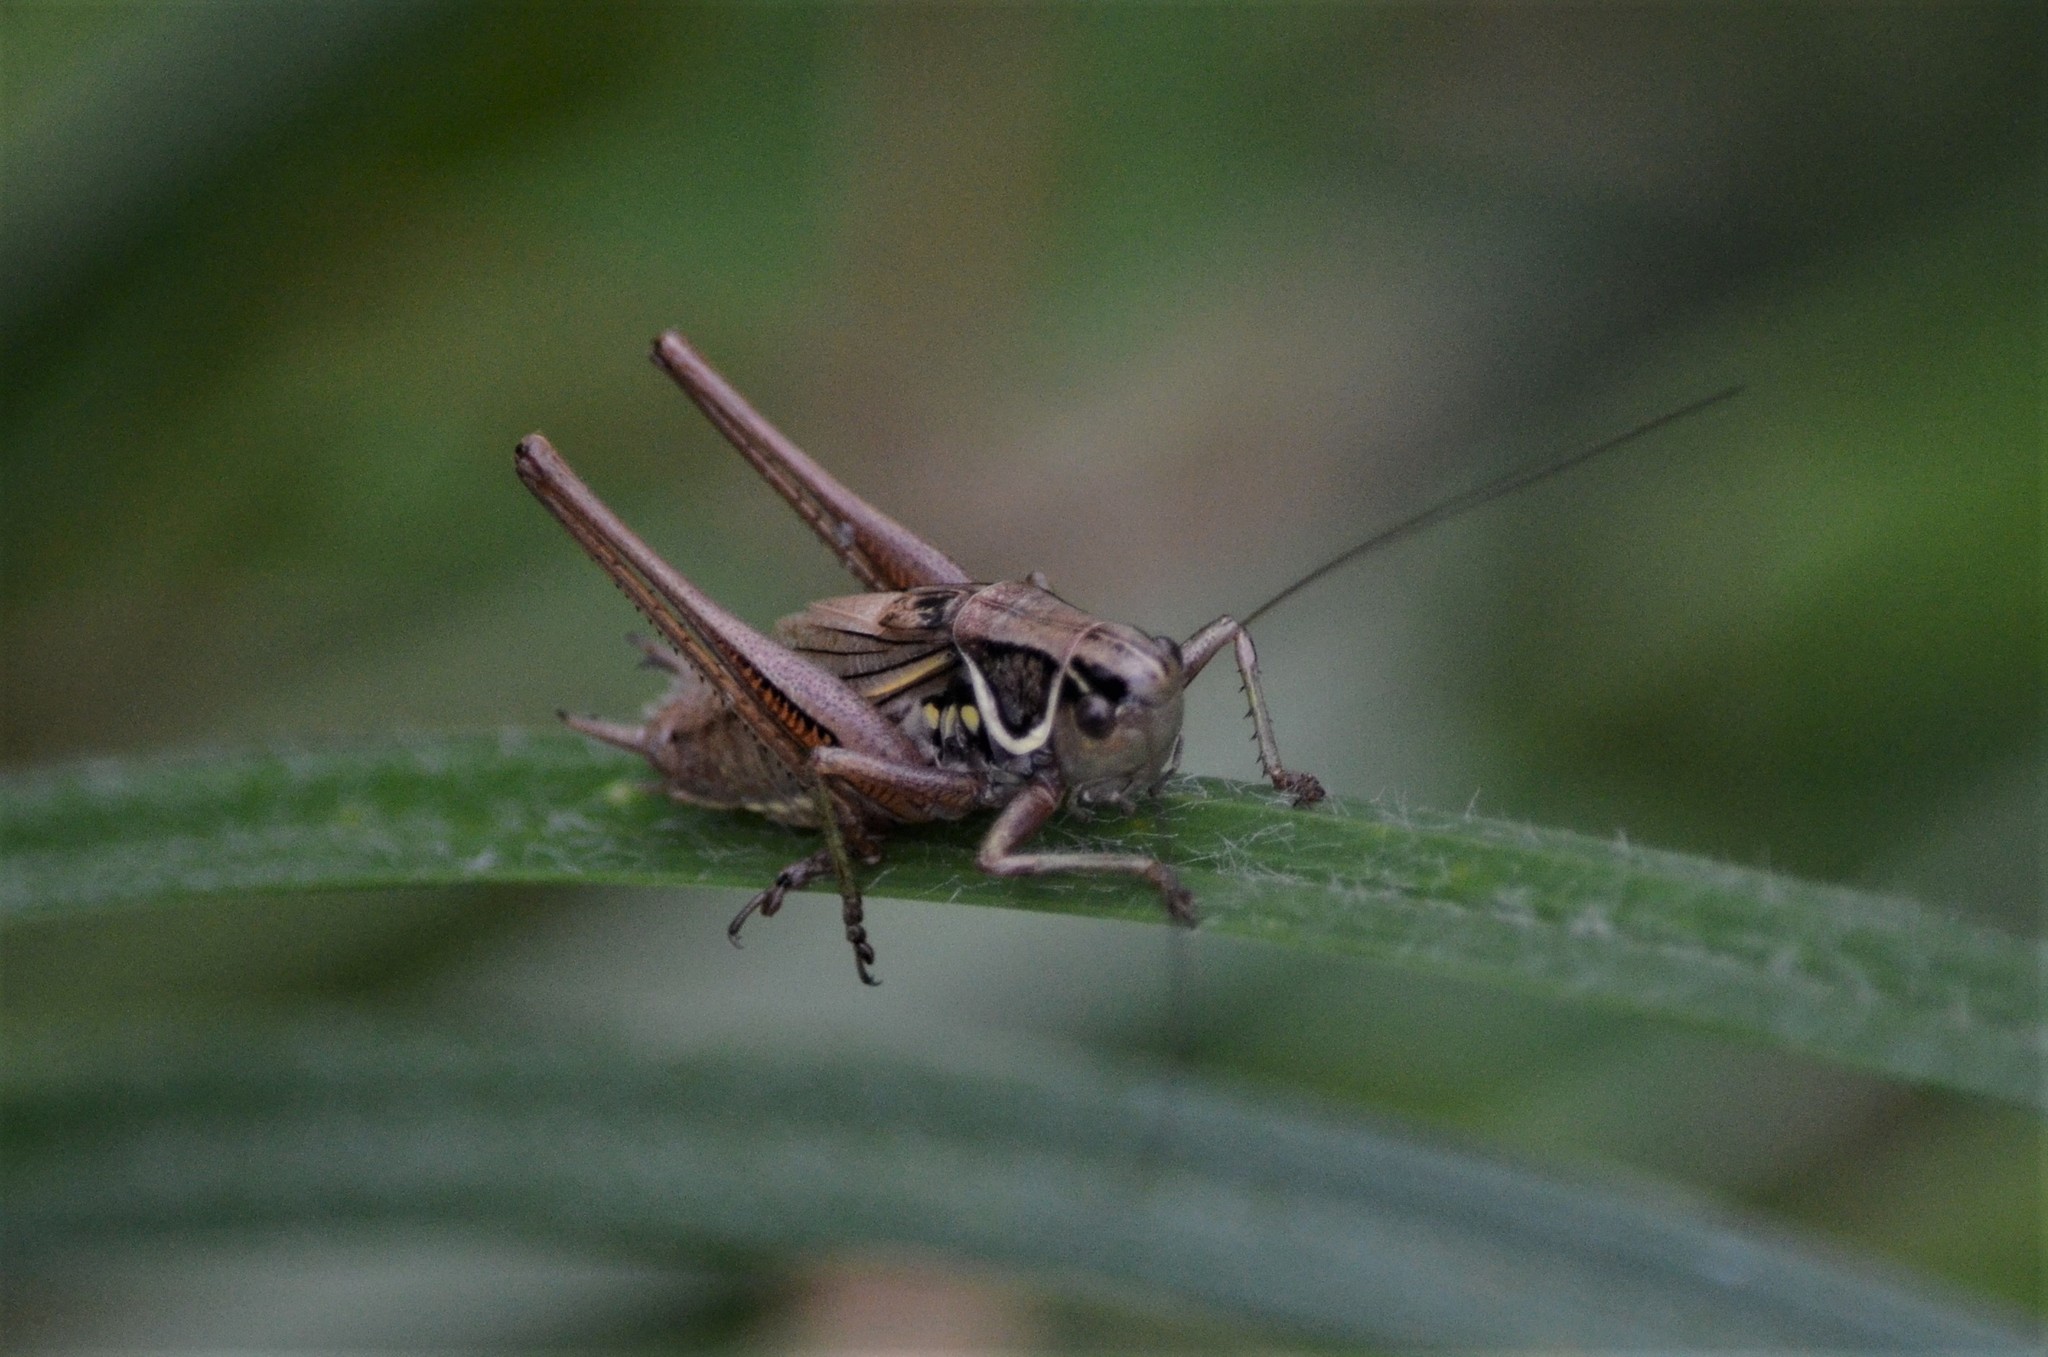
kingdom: Animalia
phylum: Arthropoda
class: Insecta
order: Orthoptera
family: Tettigoniidae
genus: Roeseliana
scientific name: Roeseliana roeselii
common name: Roesel's bush cricket
